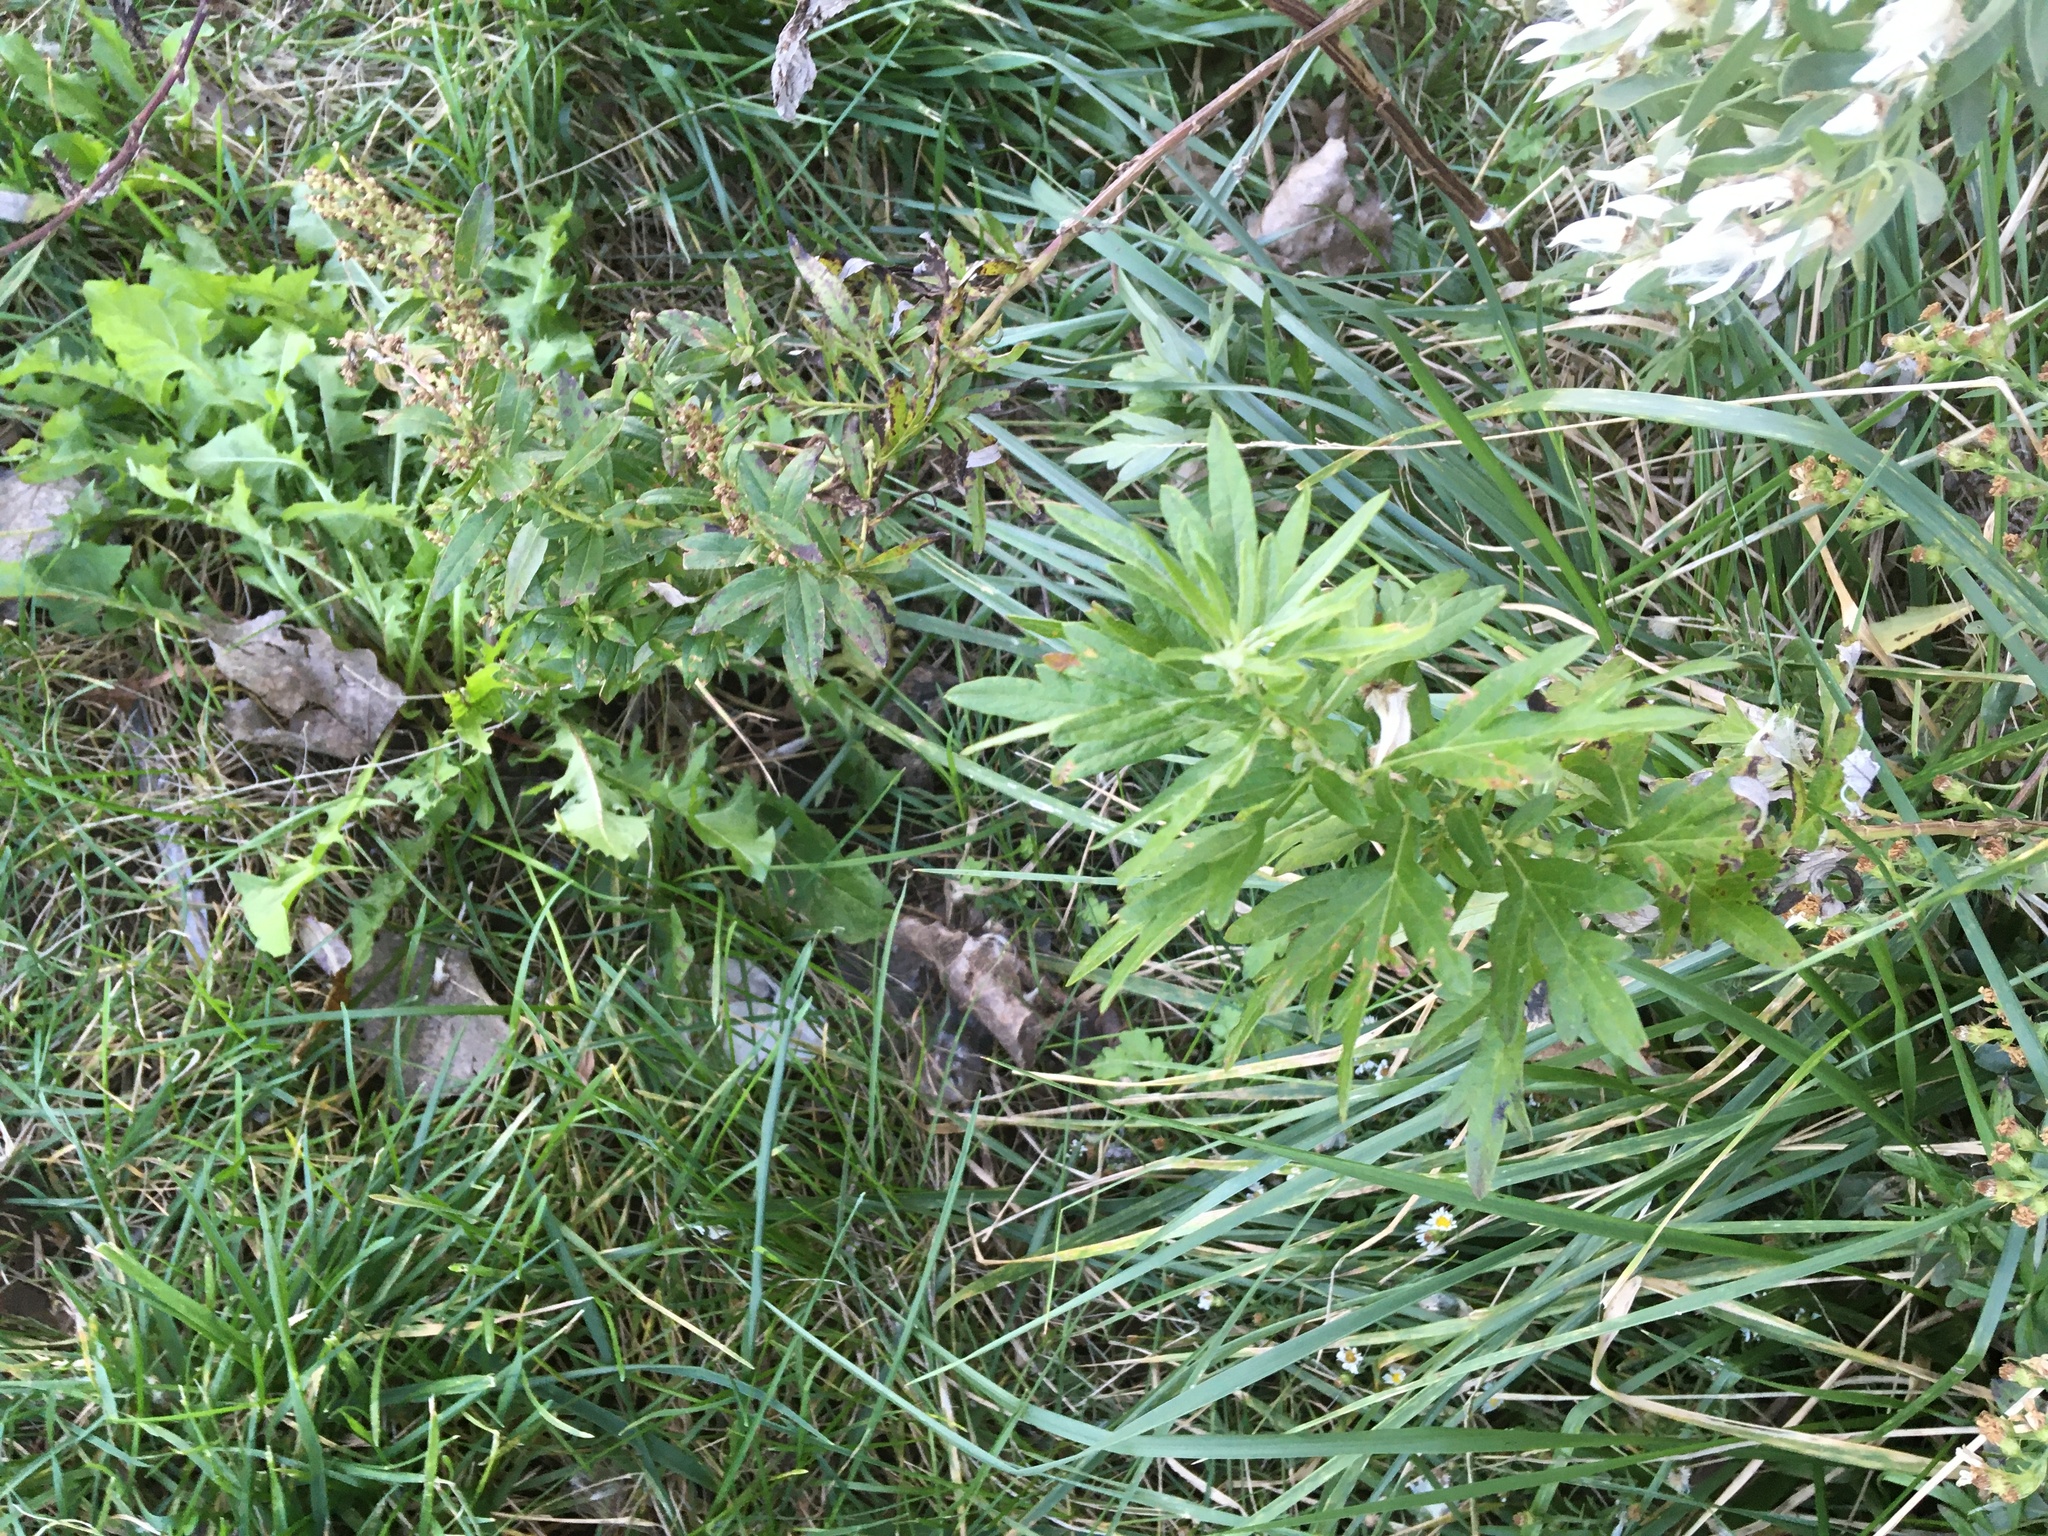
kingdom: Plantae
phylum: Tracheophyta
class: Magnoliopsida
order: Asterales
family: Asteraceae
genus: Artemisia
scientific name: Artemisia vulgaris
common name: Mugwort
